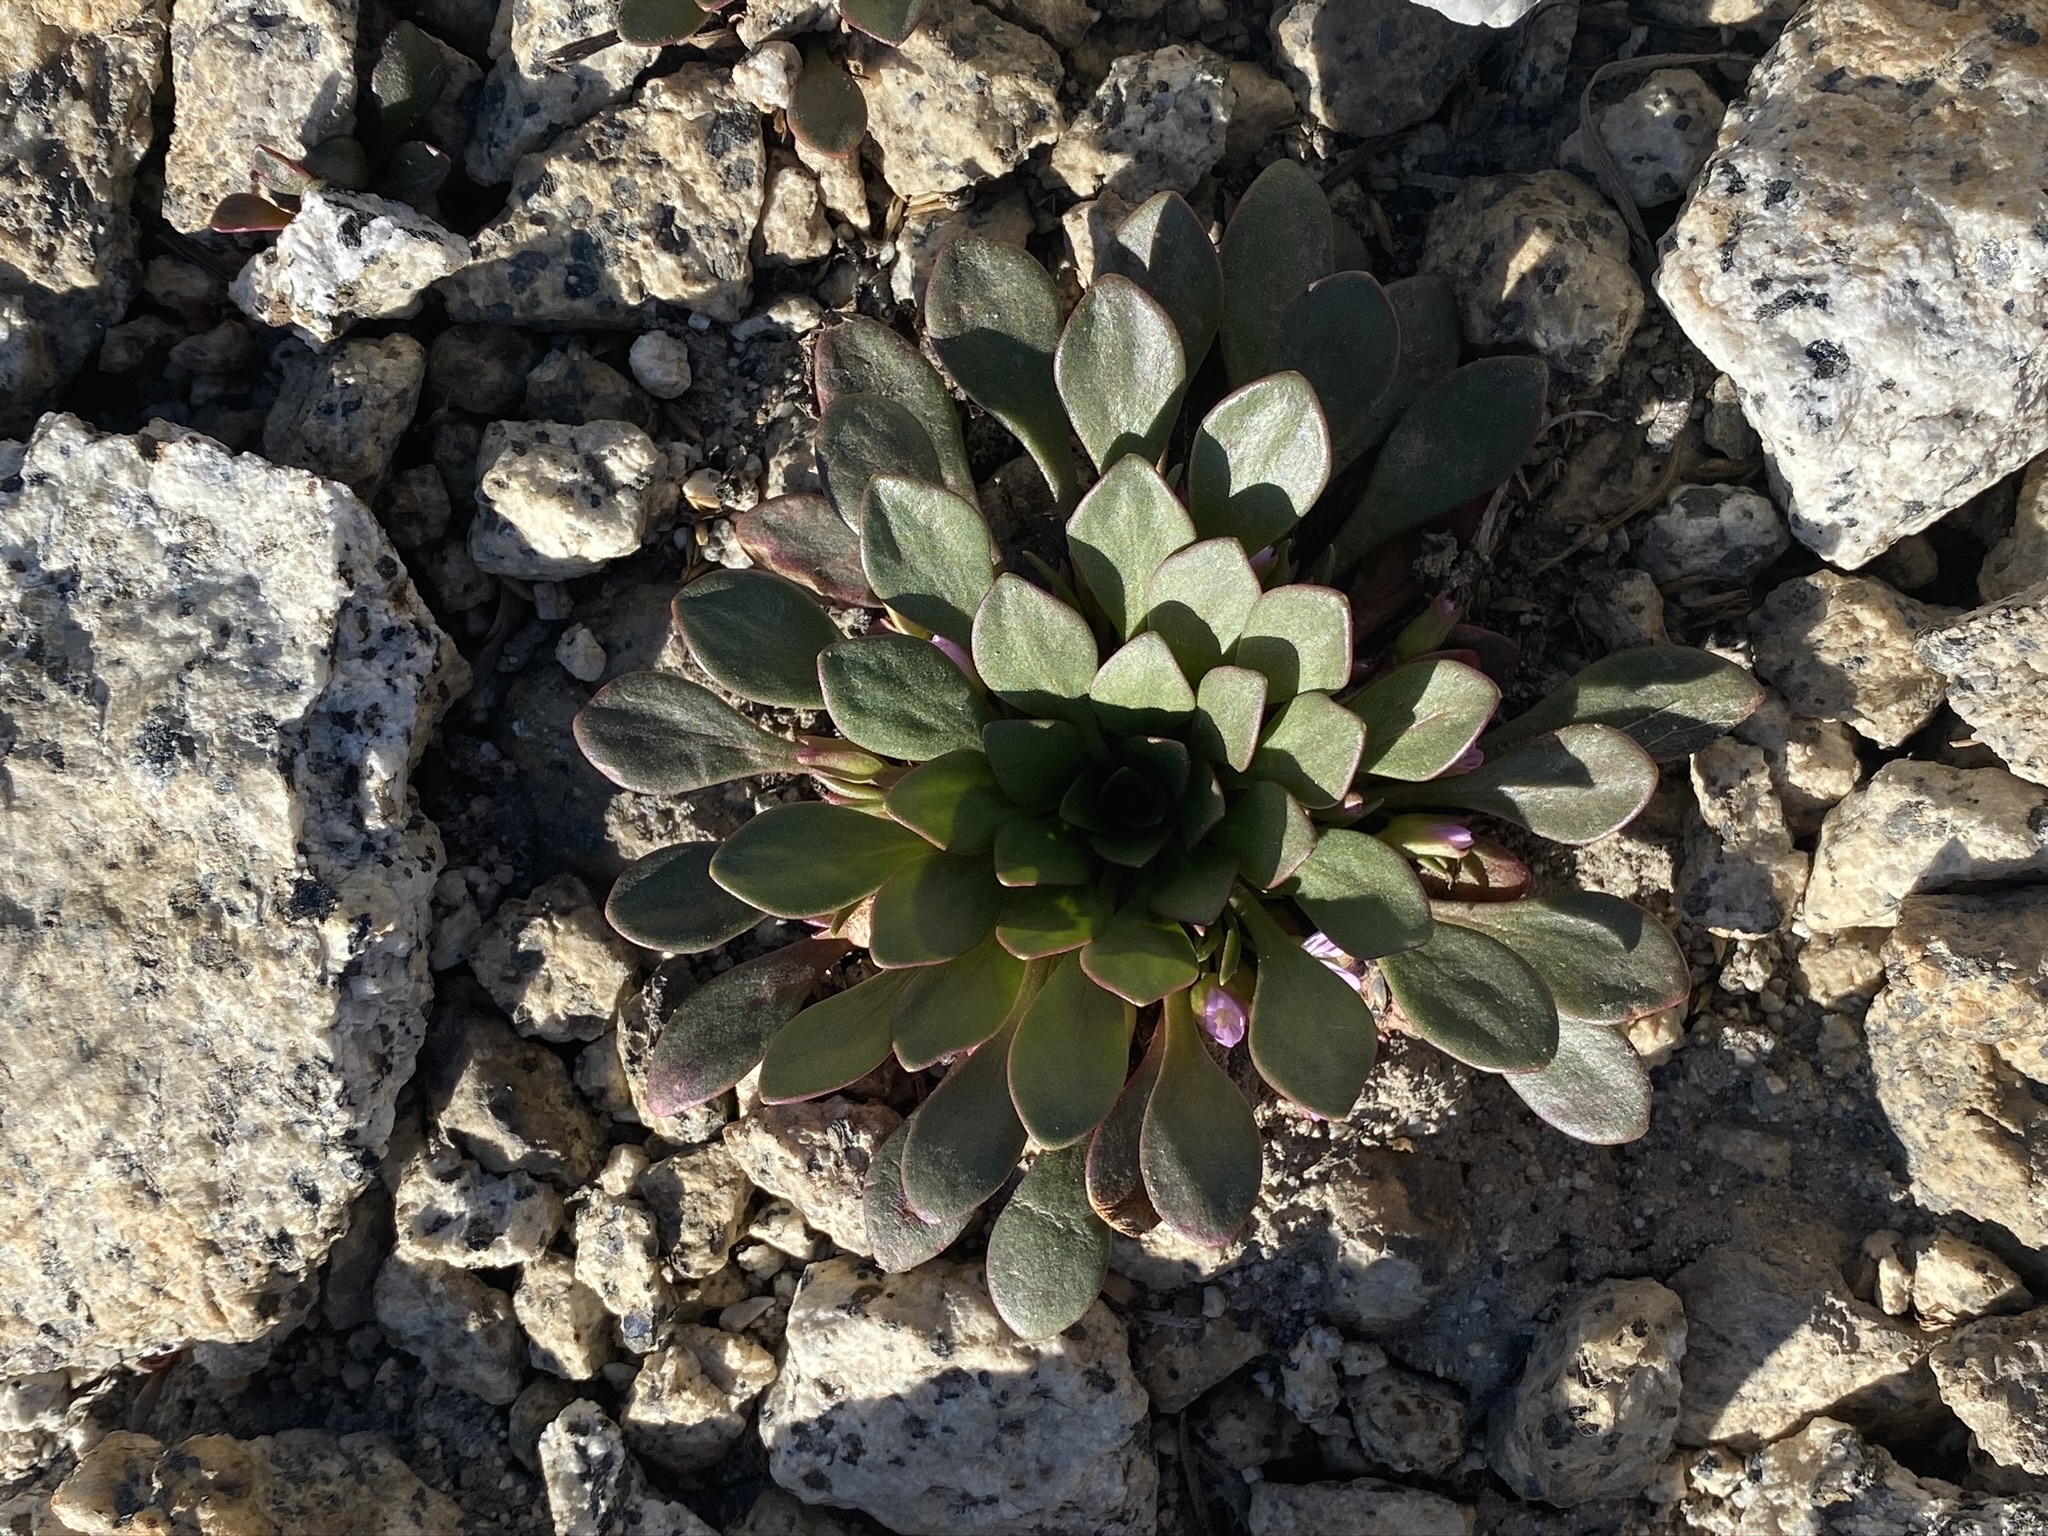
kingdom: Plantae
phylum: Tracheophyta
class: Magnoliopsida
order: Caryophyllales
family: Montiaceae
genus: Claytonia
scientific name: Claytonia megarhiza
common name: Alpine spring beauty
